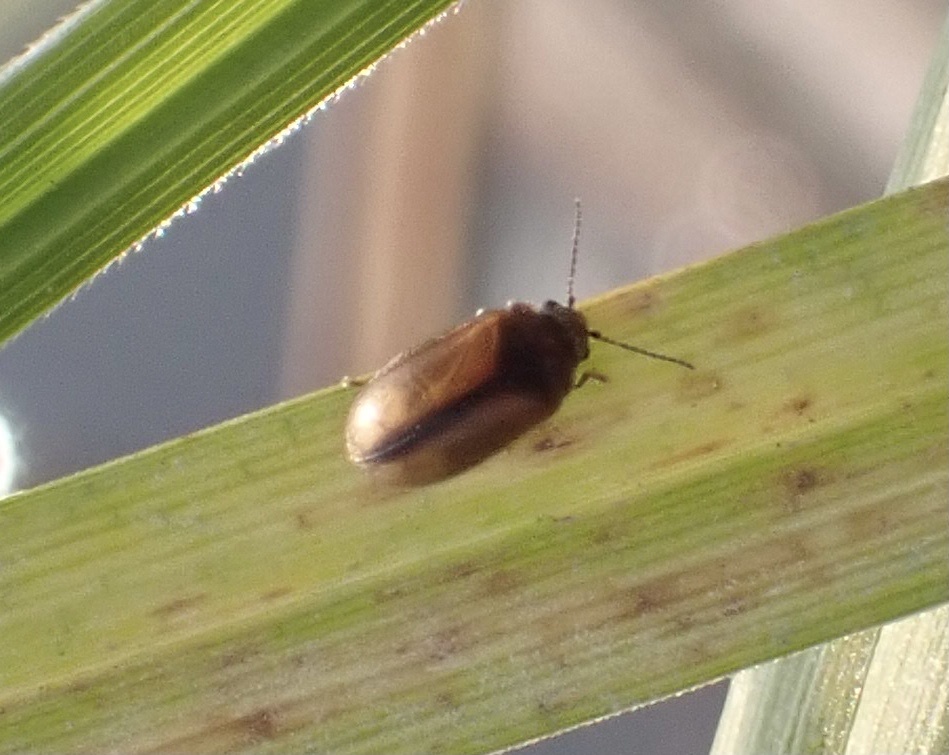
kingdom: Animalia
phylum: Arthropoda
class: Insecta
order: Coleoptera
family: Scirtidae
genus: Contacyphon
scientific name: Contacyphon laevipennis
